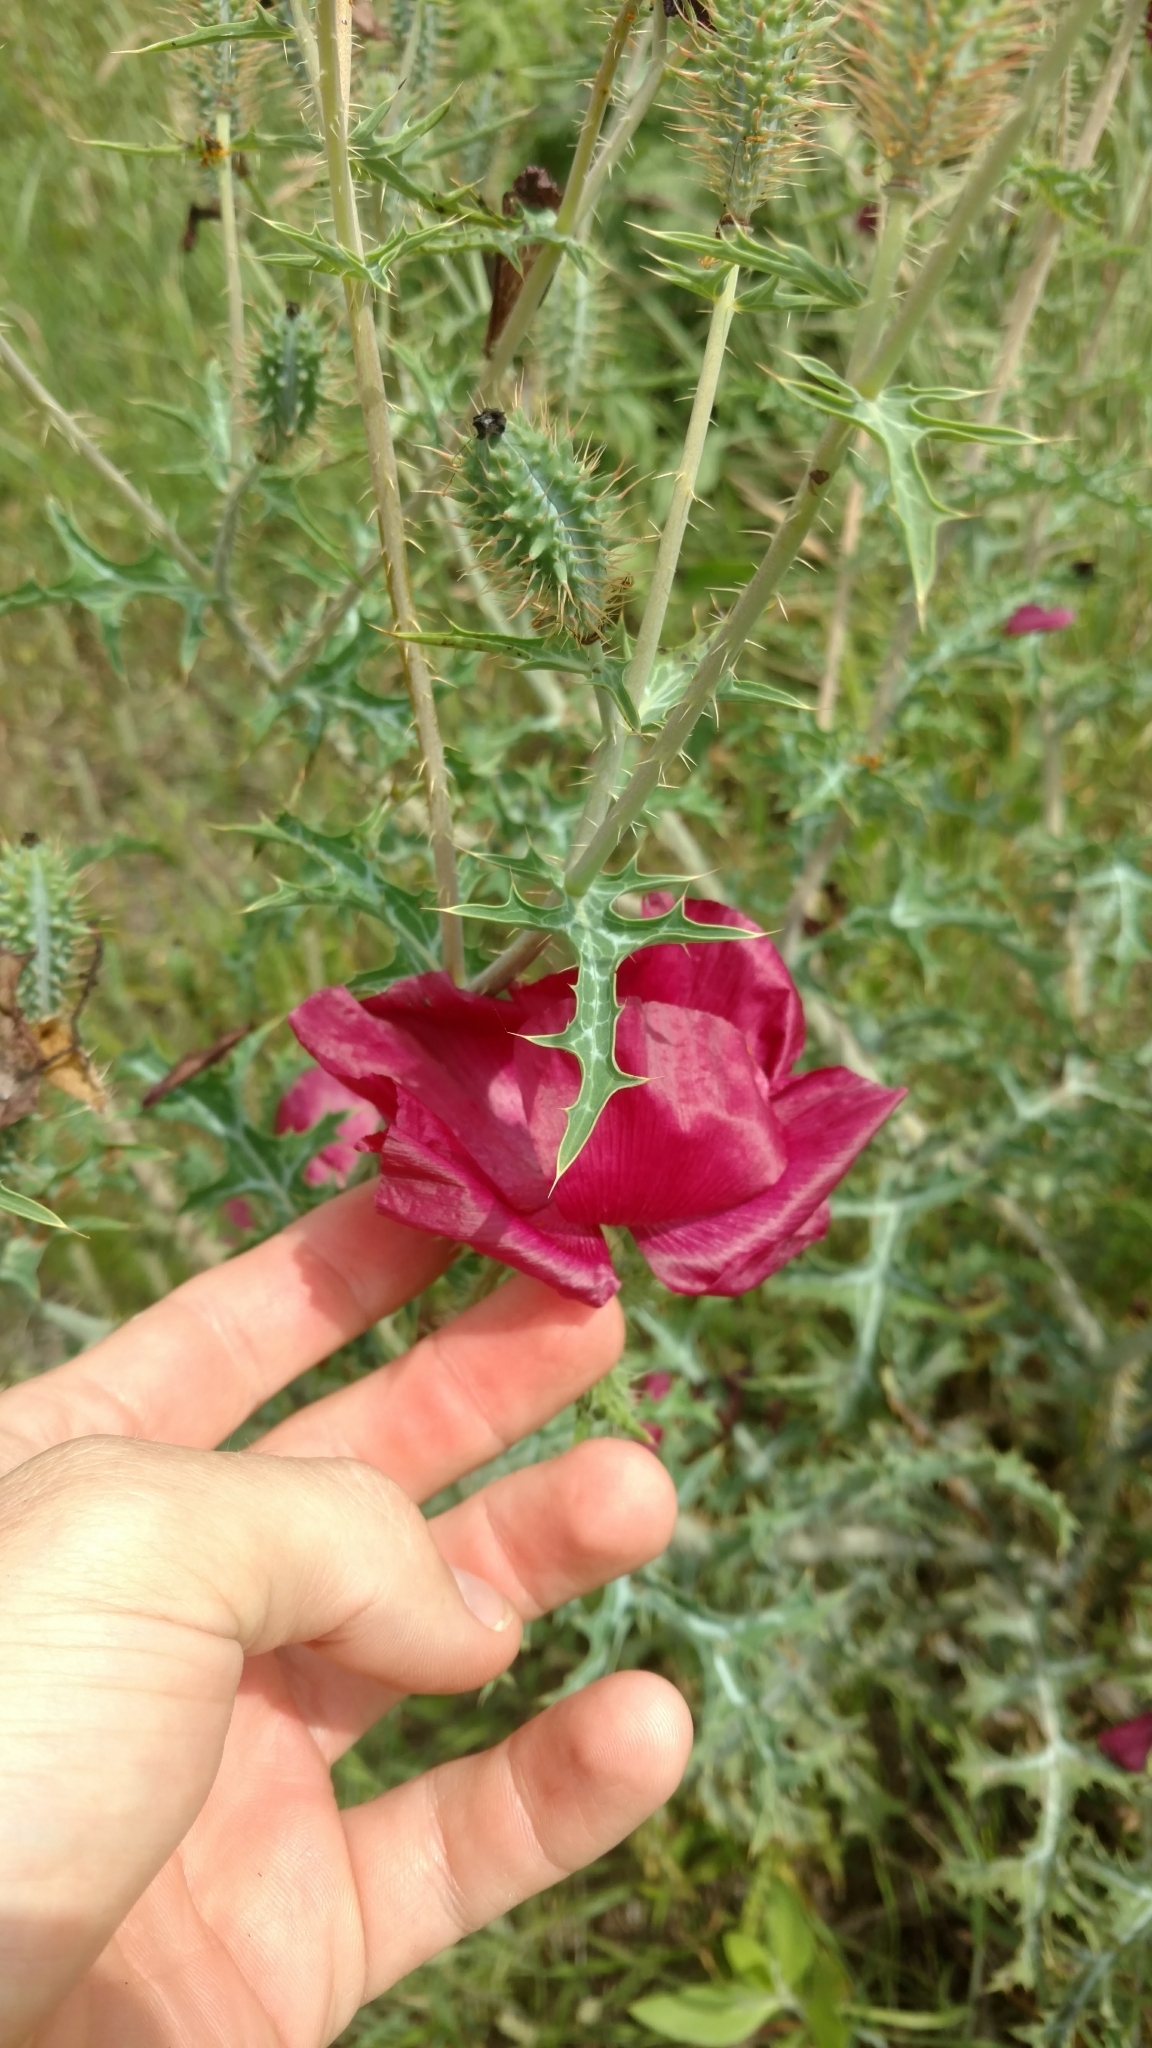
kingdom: Plantae
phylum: Tracheophyta
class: Magnoliopsida
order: Ranunculales
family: Papaveraceae
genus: Argemone
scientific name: Argemone sanguinea
